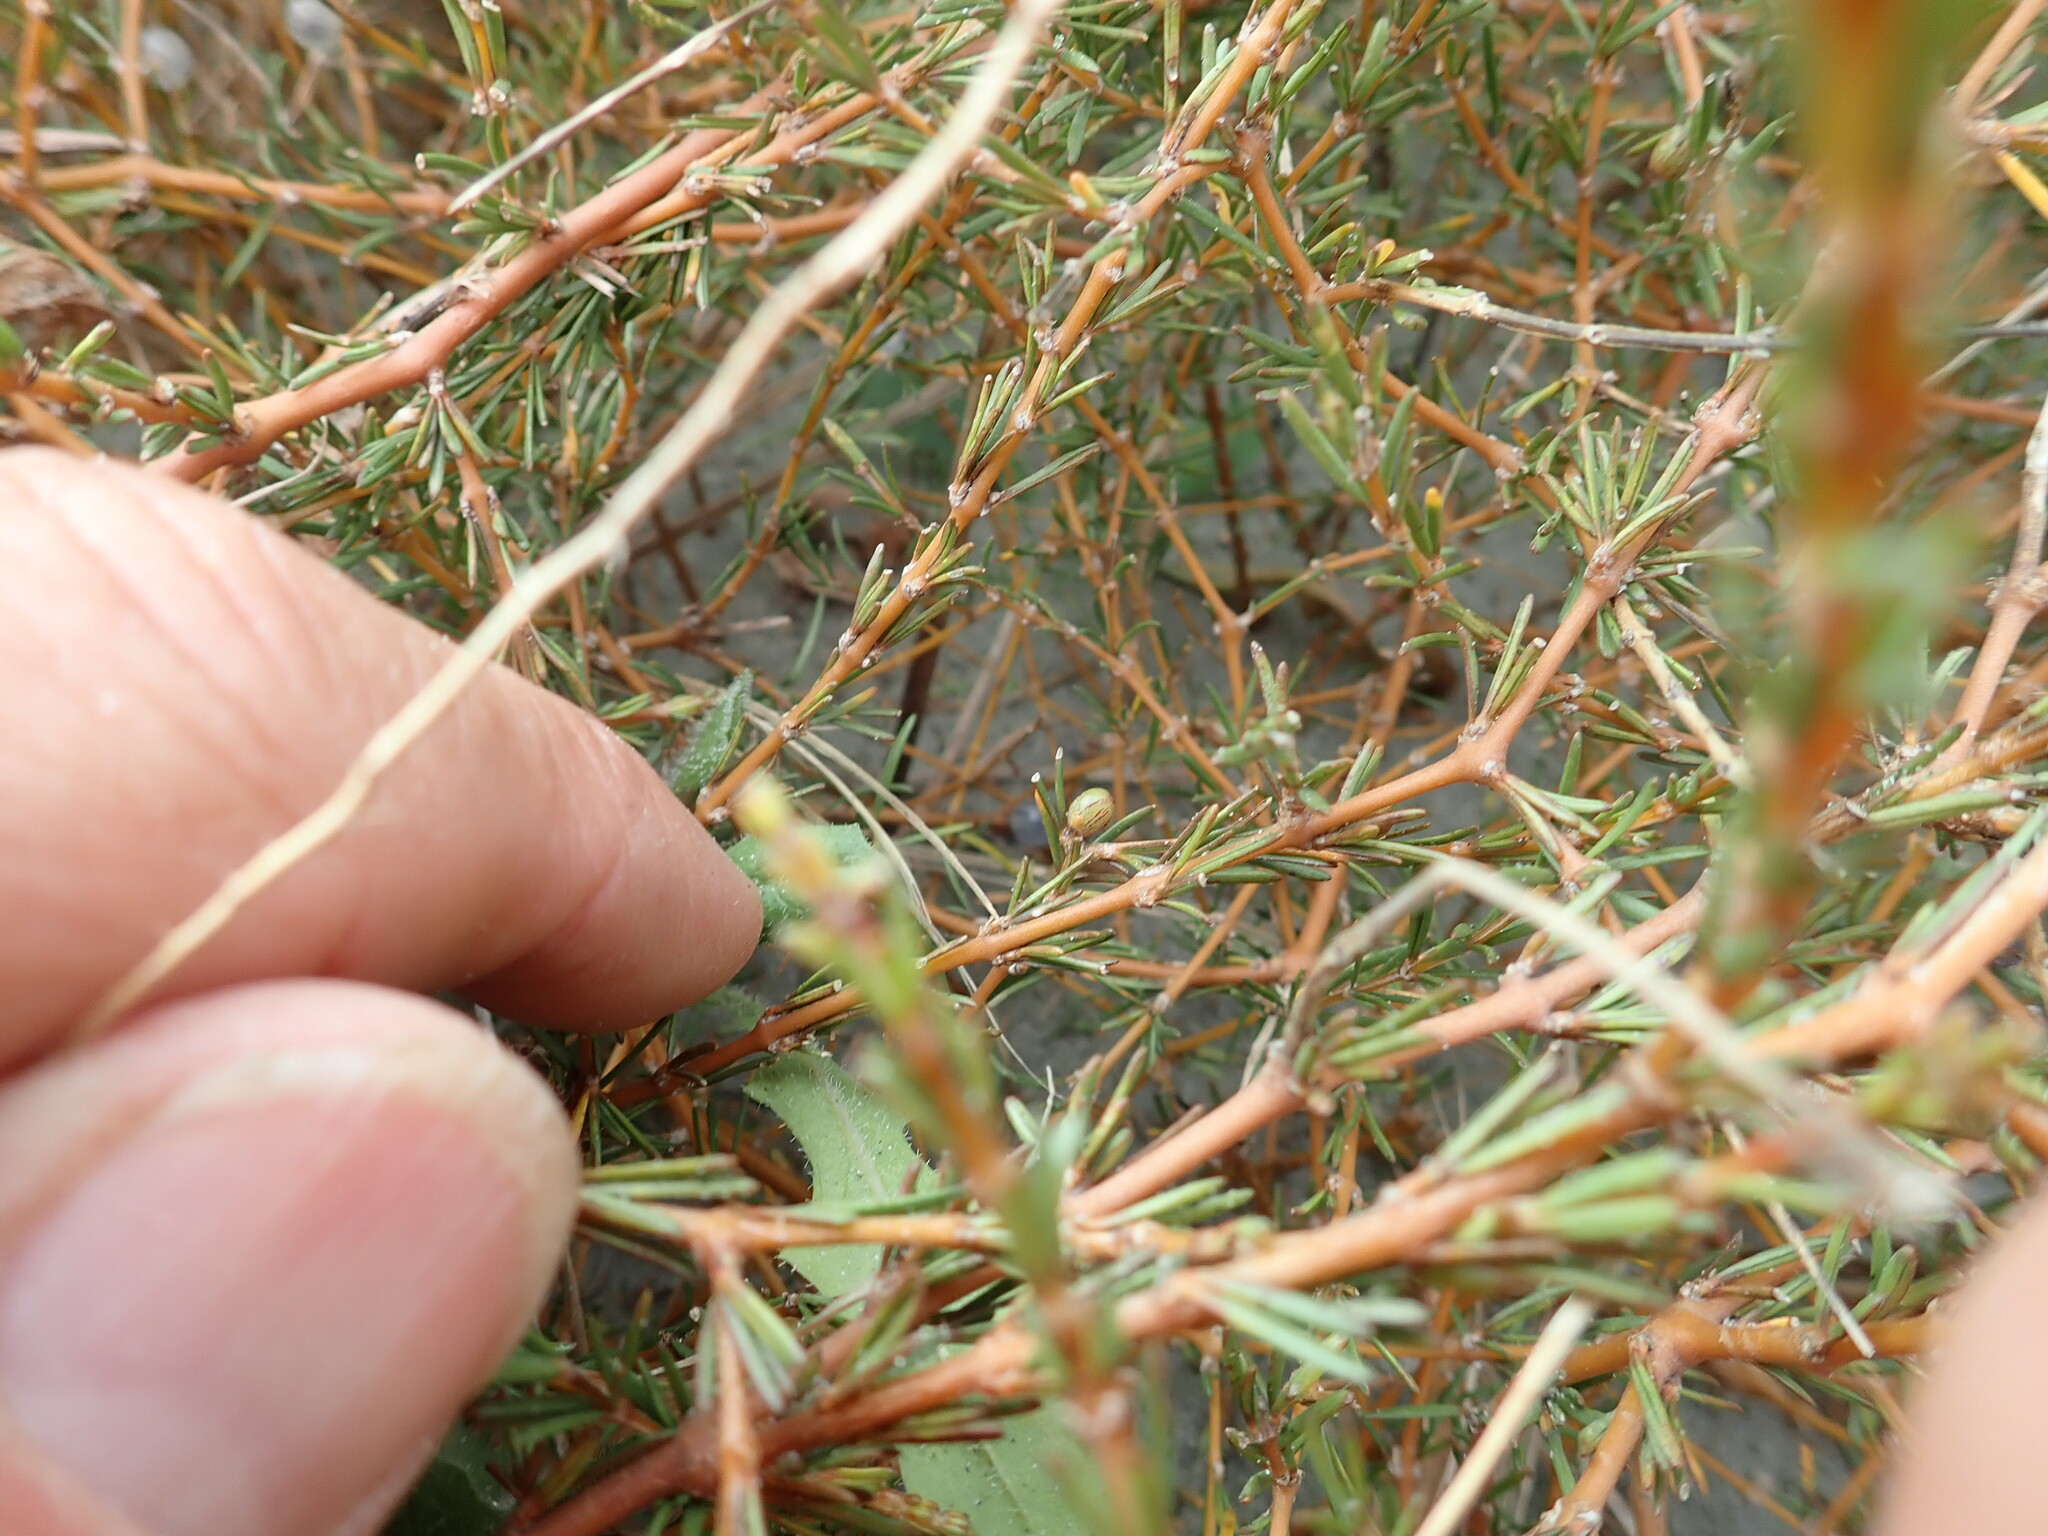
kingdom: Plantae
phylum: Tracheophyta
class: Magnoliopsida
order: Gentianales
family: Rubiaceae
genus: Coprosma
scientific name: Coprosma acerosa
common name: Sand coprosma
